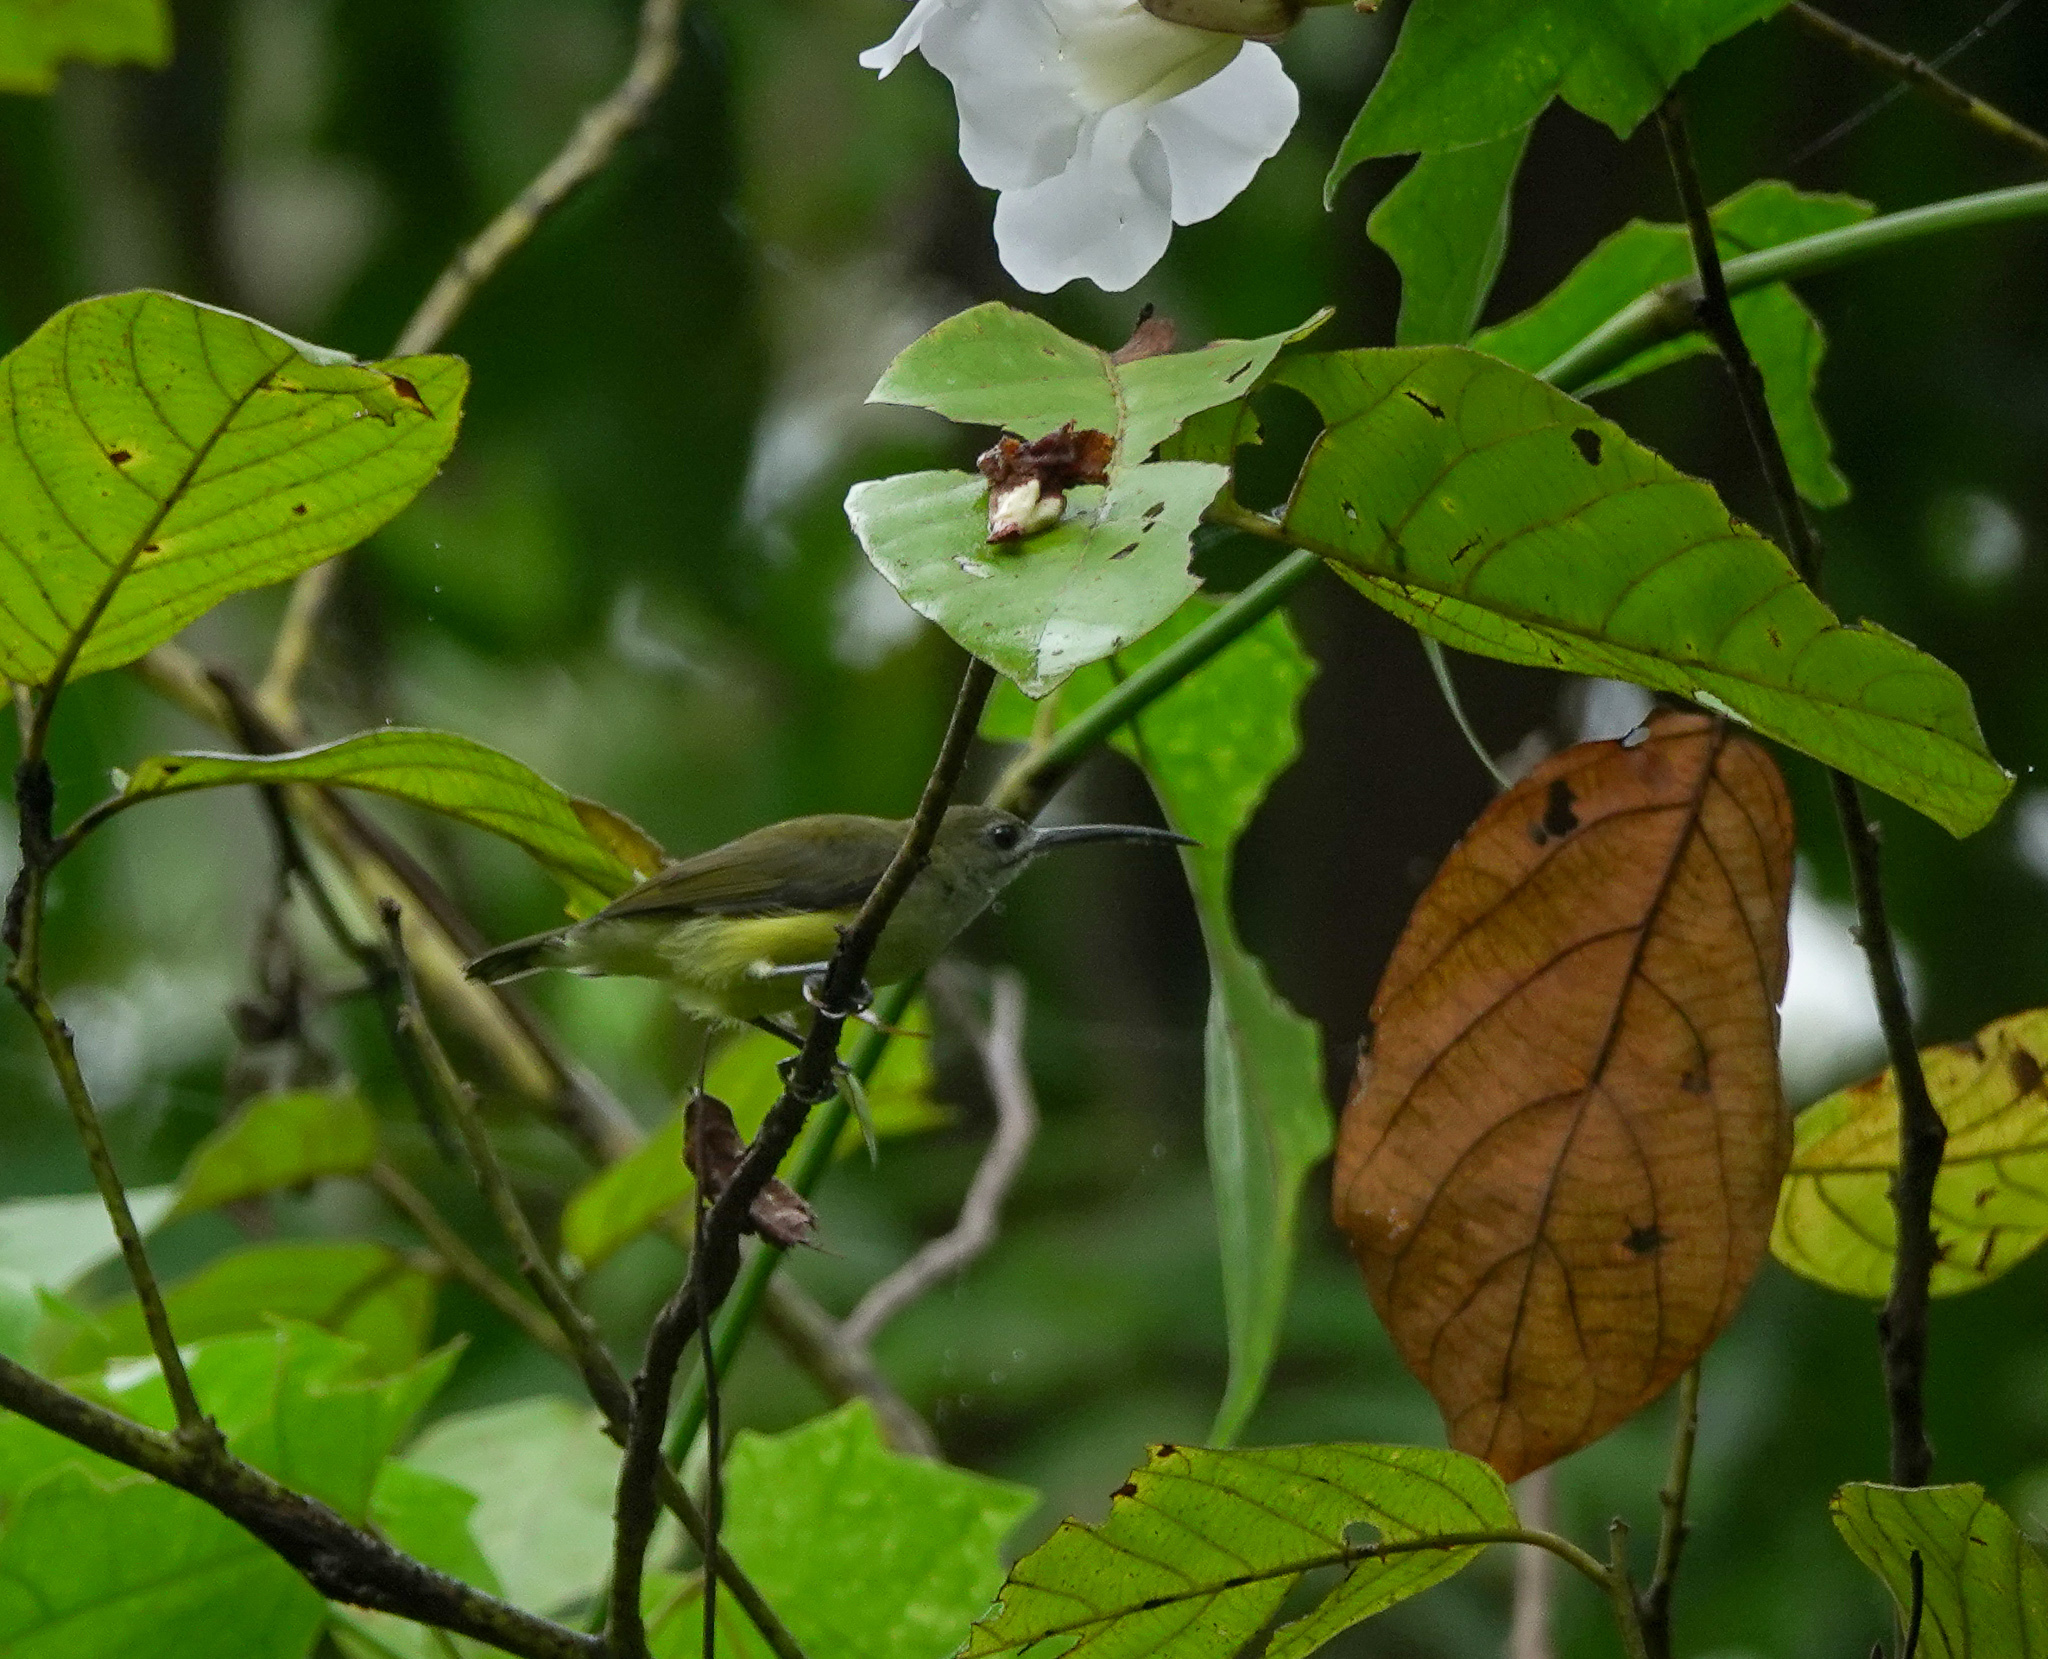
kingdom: Animalia
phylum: Chordata
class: Aves
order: Passeriformes
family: Nectariniidae
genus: Arachnothera
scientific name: Arachnothera longirostra
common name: Little spiderhunter
